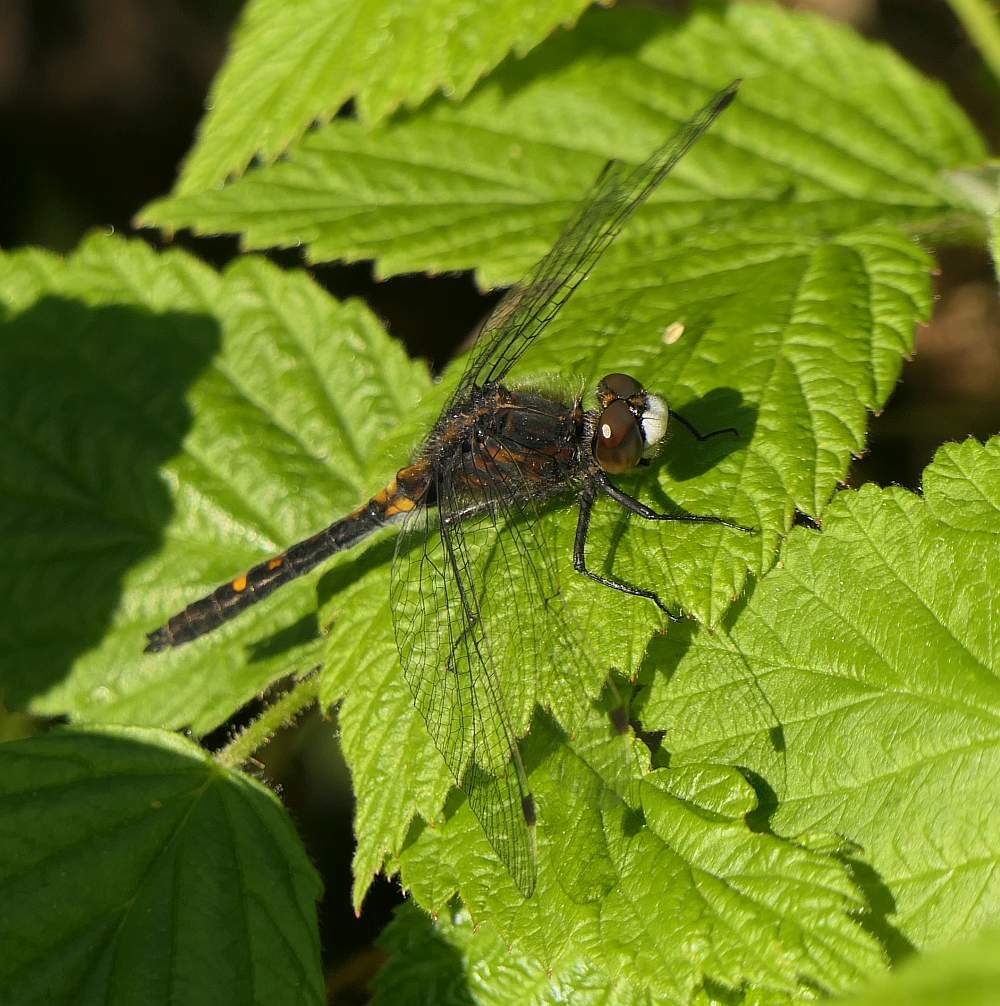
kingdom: Animalia
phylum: Arthropoda
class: Insecta
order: Odonata
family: Libellulidae
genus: Leucorrhinia
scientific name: Leucorrhinia intacta
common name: Dot-tailed whiteface
